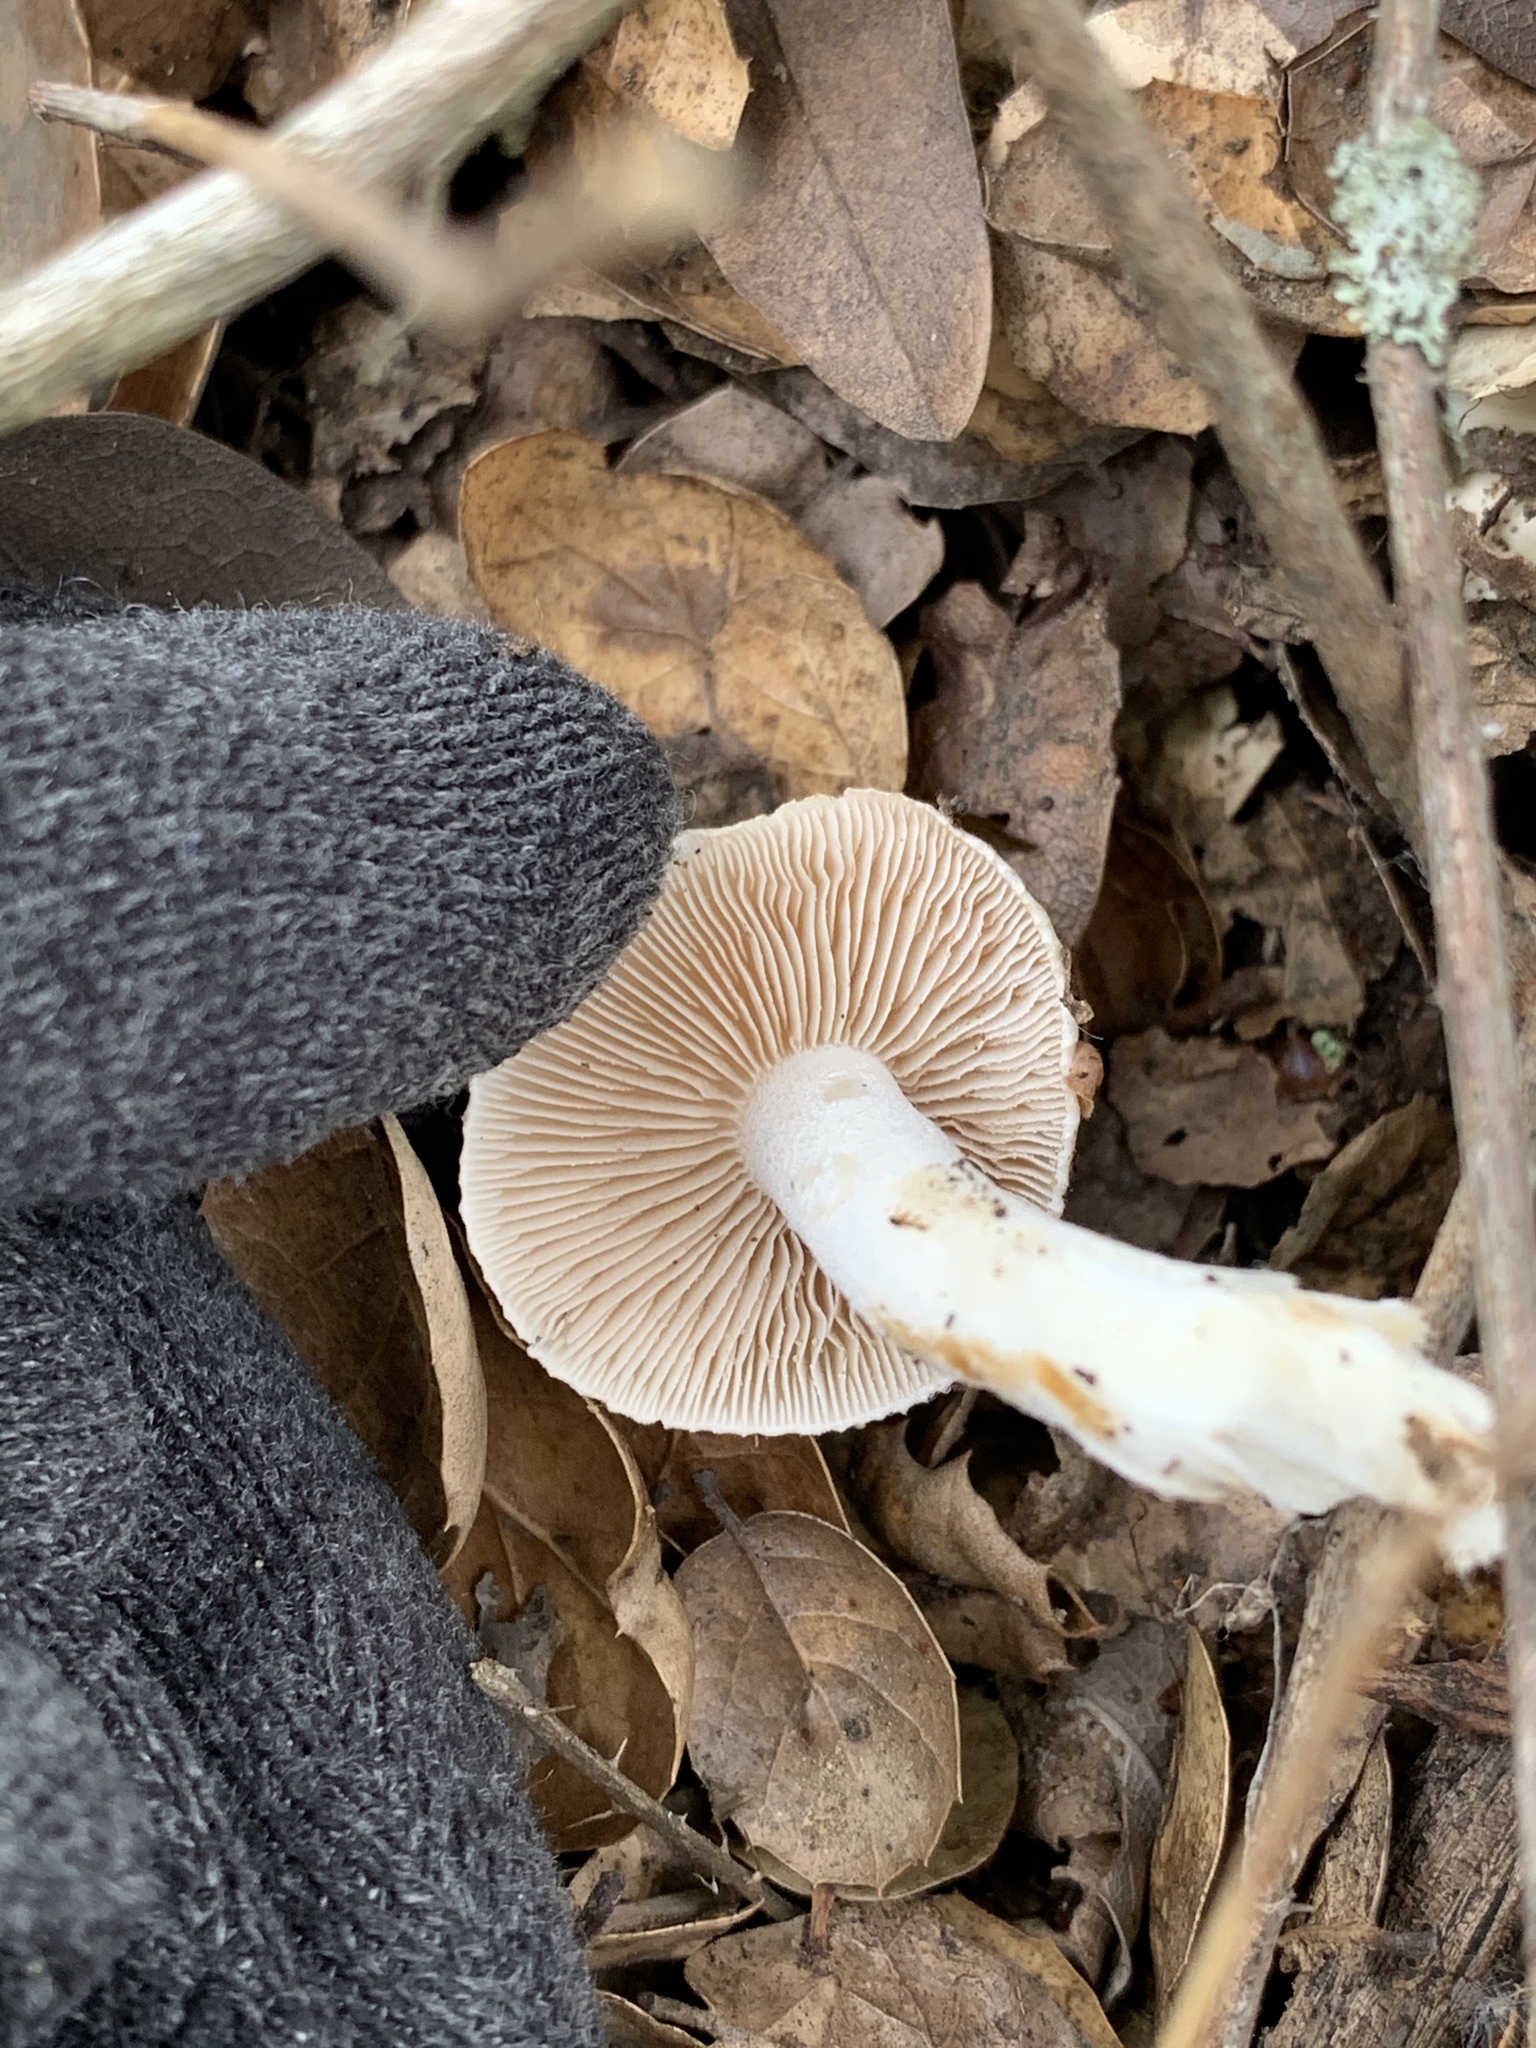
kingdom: Fungi
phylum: Basidiomycota
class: Agaricomycetes
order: Agaricales
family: Hymenogastraceae
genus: Hebeloma
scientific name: Hebeloma crustuliniforme
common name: Poison pie
